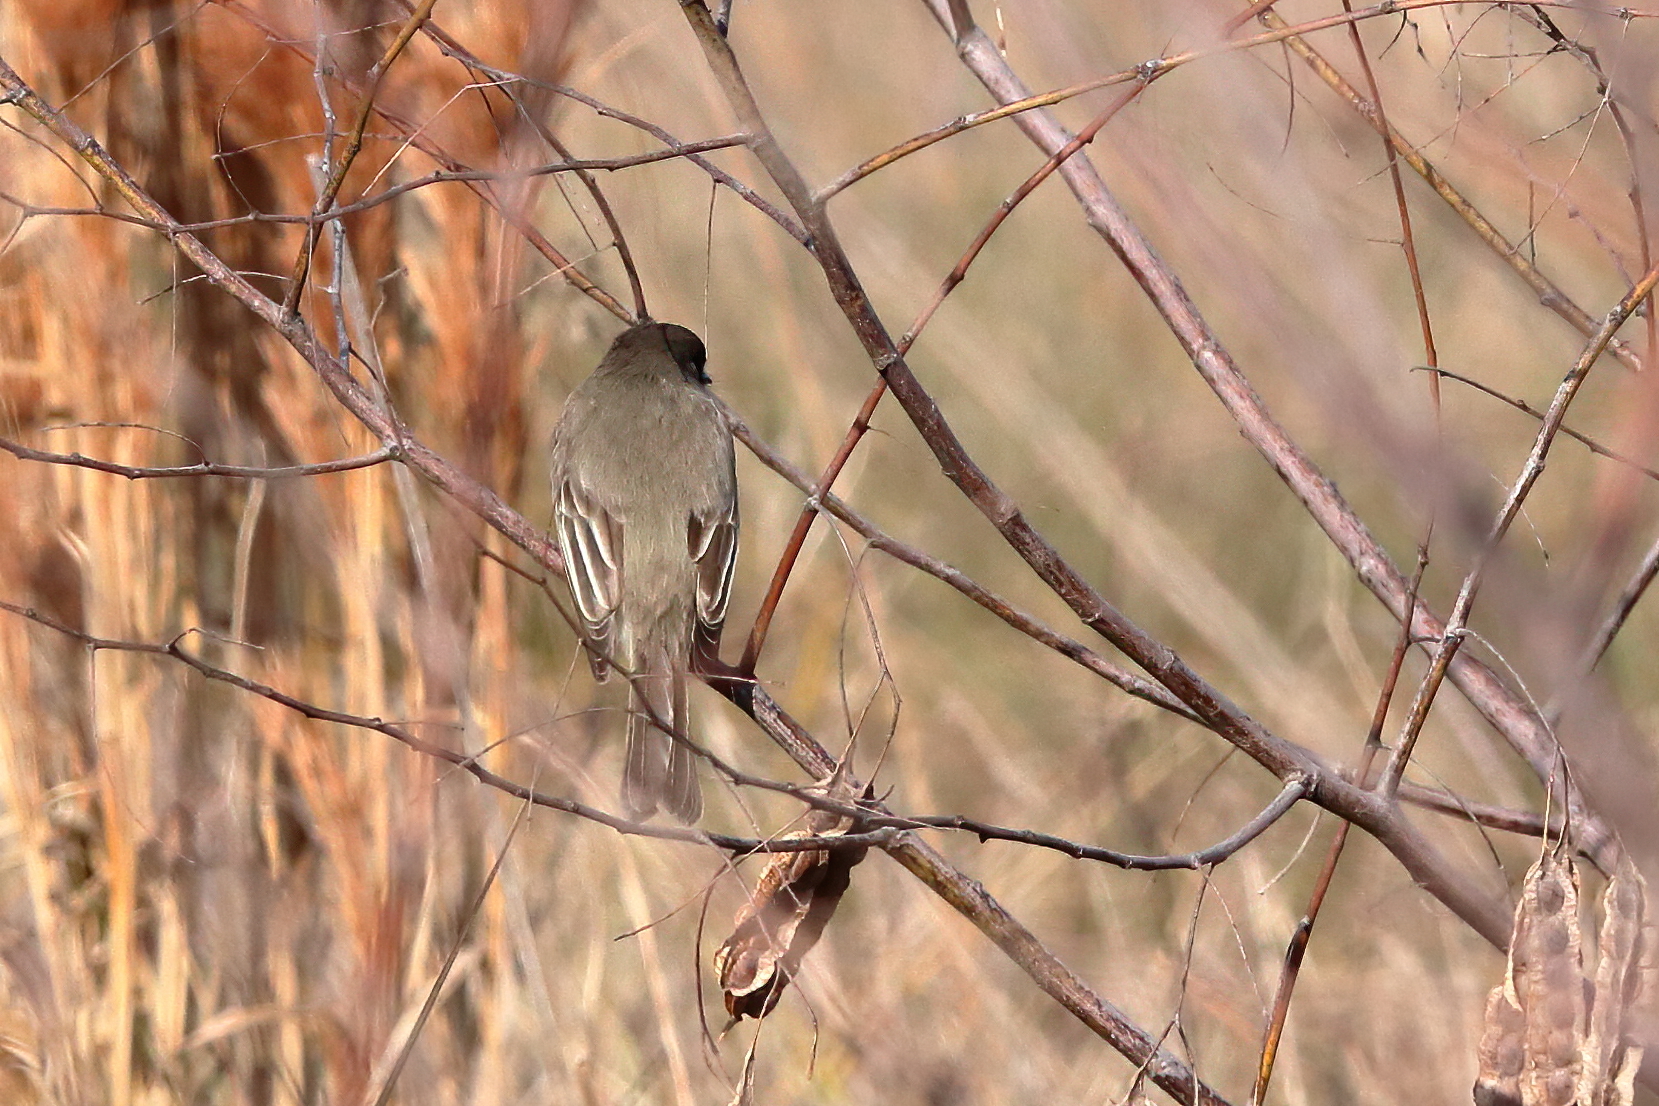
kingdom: Animalia
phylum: Chordata
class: Aves
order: Passeriformes
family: Tyrannidae
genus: Sayornis
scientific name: Sayornis phoebe
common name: Eastern phoebe
